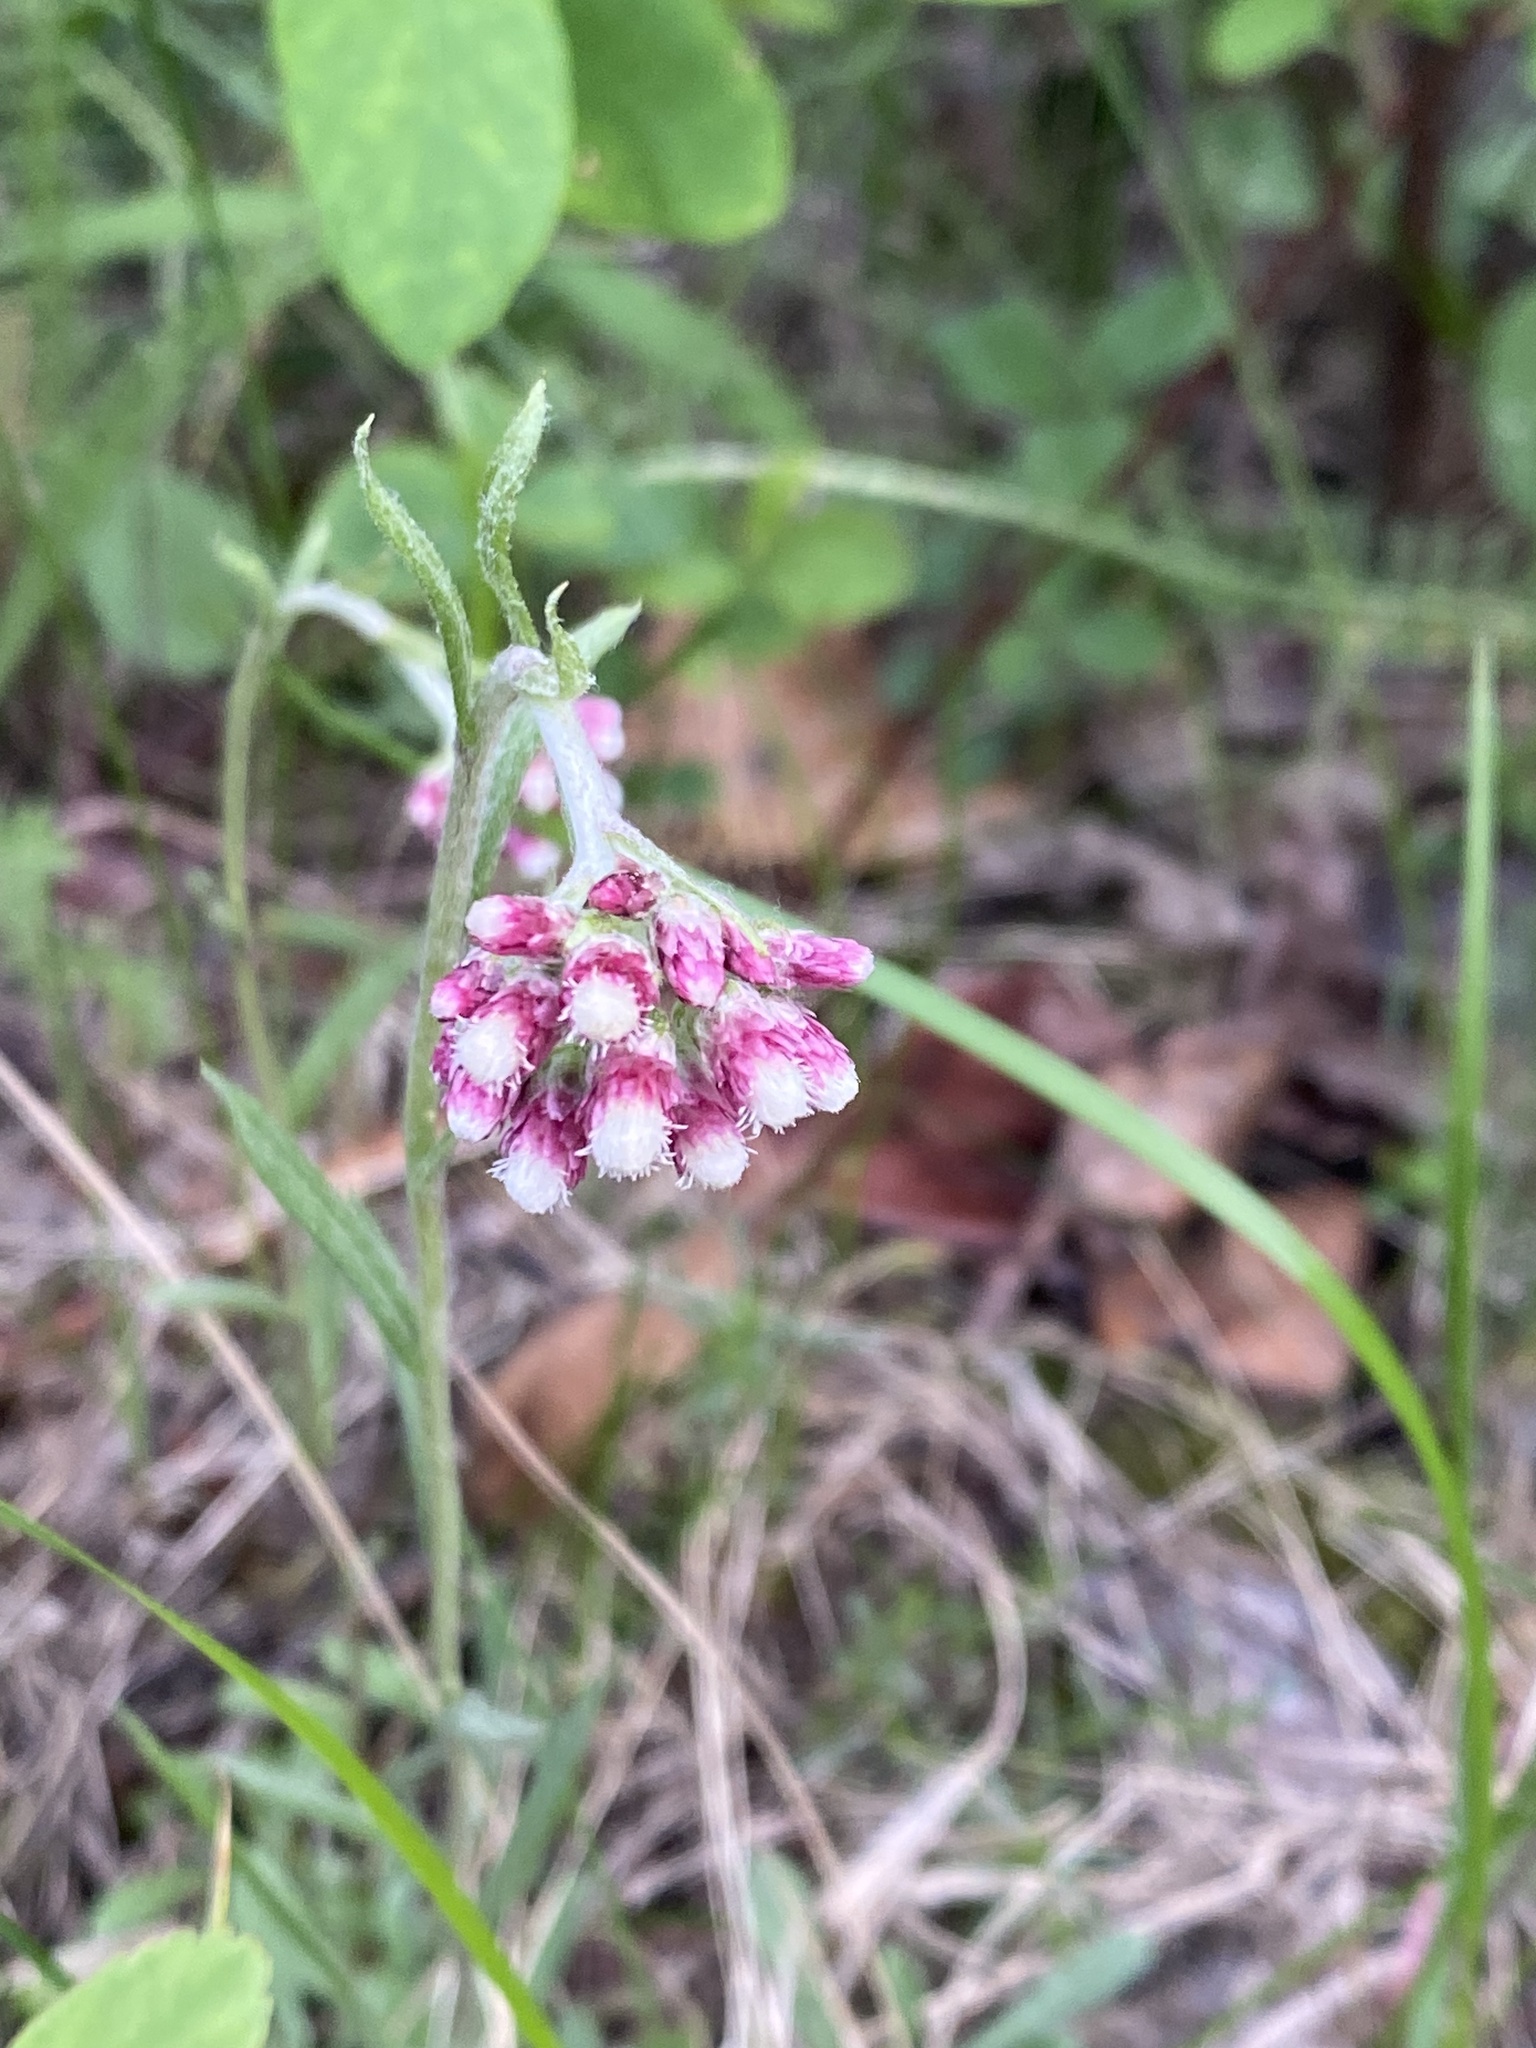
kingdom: Plantae
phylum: Tracheophyta
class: Magnoliopsida
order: Asterales
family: Asteraceae
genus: Antennaria
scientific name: Antennaria rosea
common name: Rosy pussytoes
